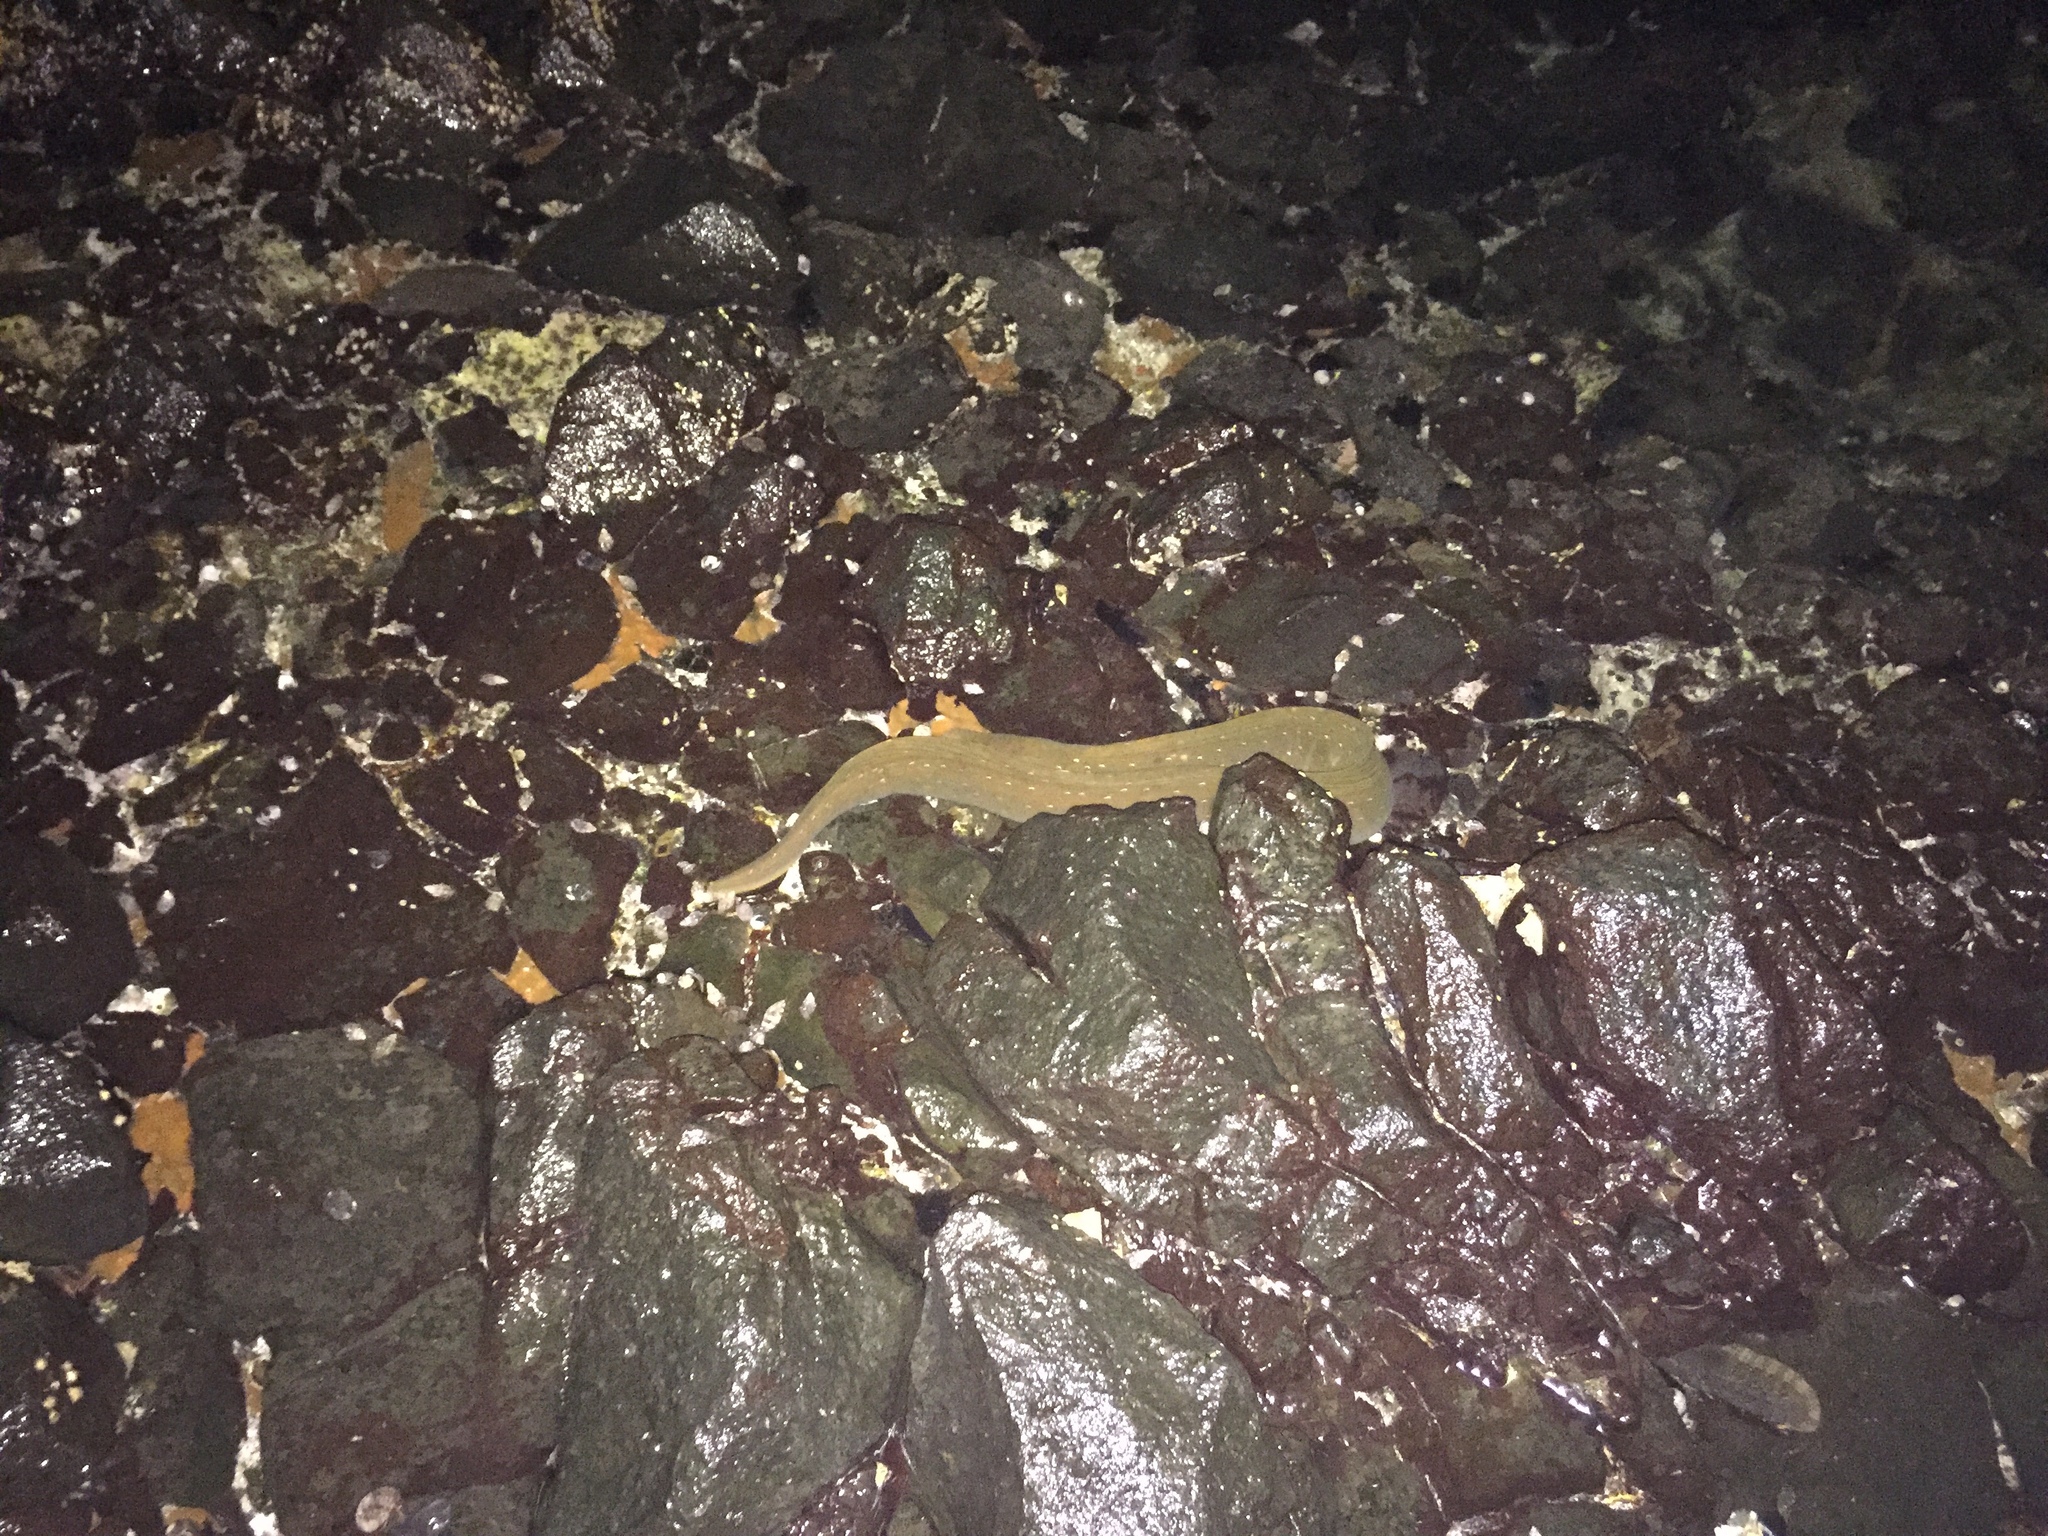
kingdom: Animalia
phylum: Chordata
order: Anguilliformes
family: Muraenidae
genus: Gymnothorax
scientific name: Gymnothorax castaneus
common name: Chestnut moray
